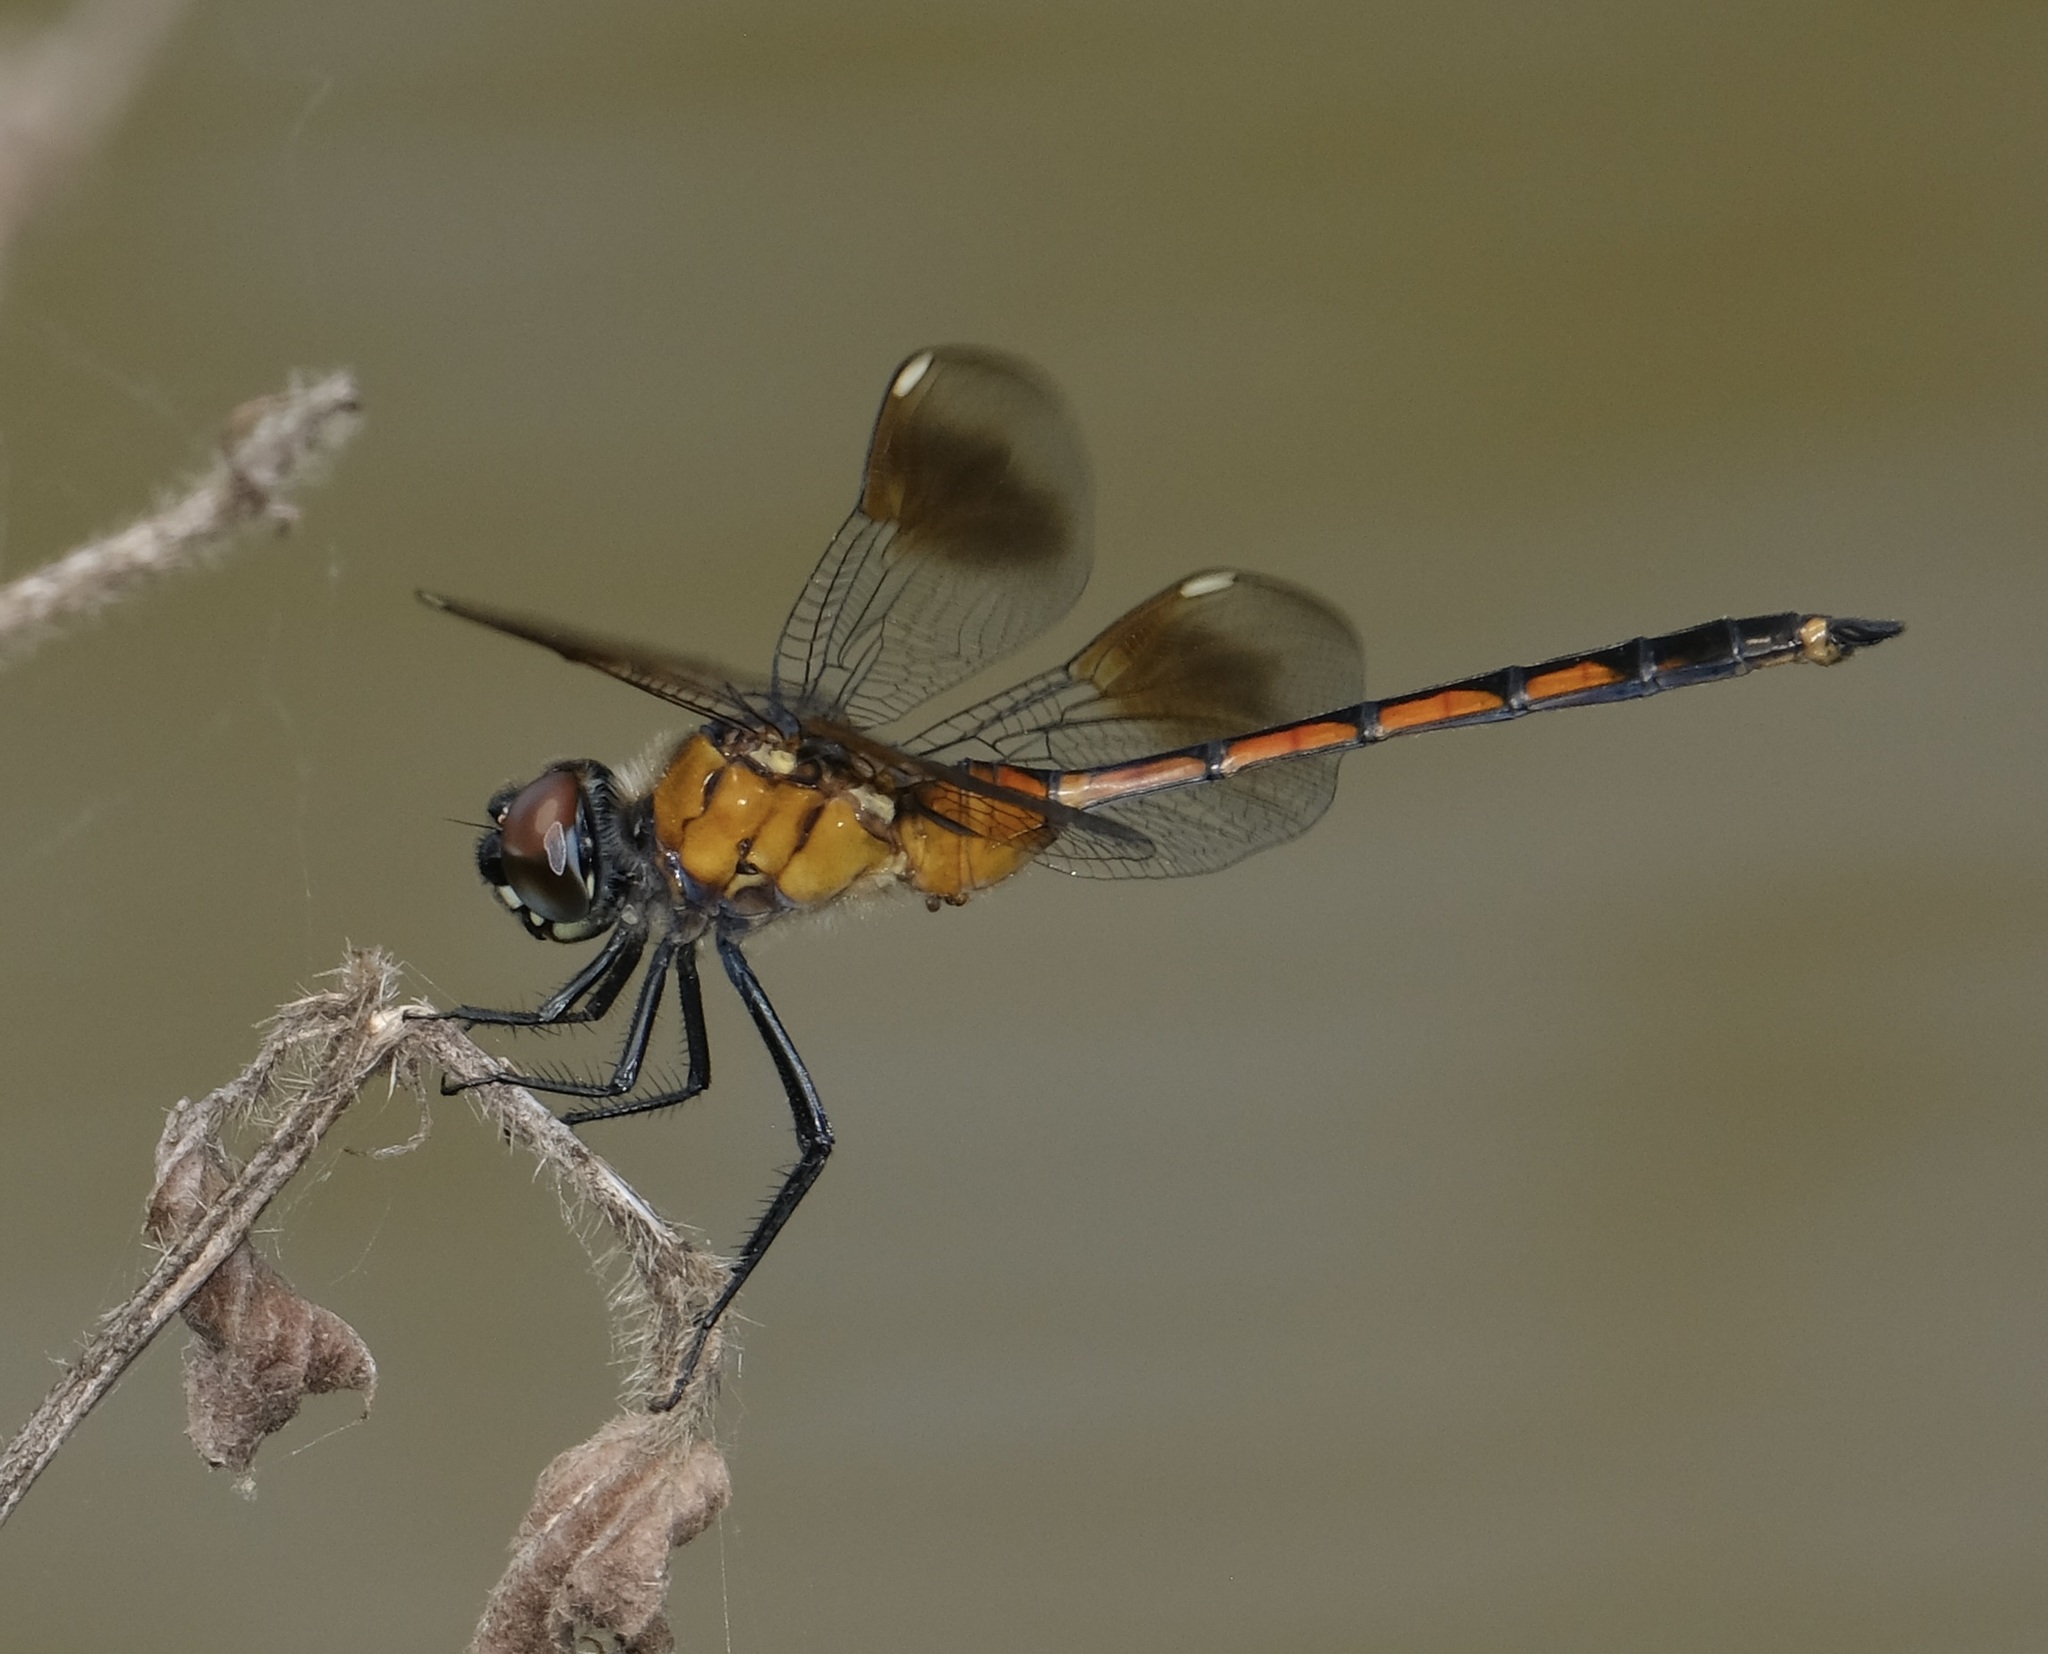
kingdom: Animalia
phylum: Arthropoda
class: Insecta
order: Odonata
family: Libellulidae
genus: Brachymesia
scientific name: Brachymesia gravida
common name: Four-spotted pennant
